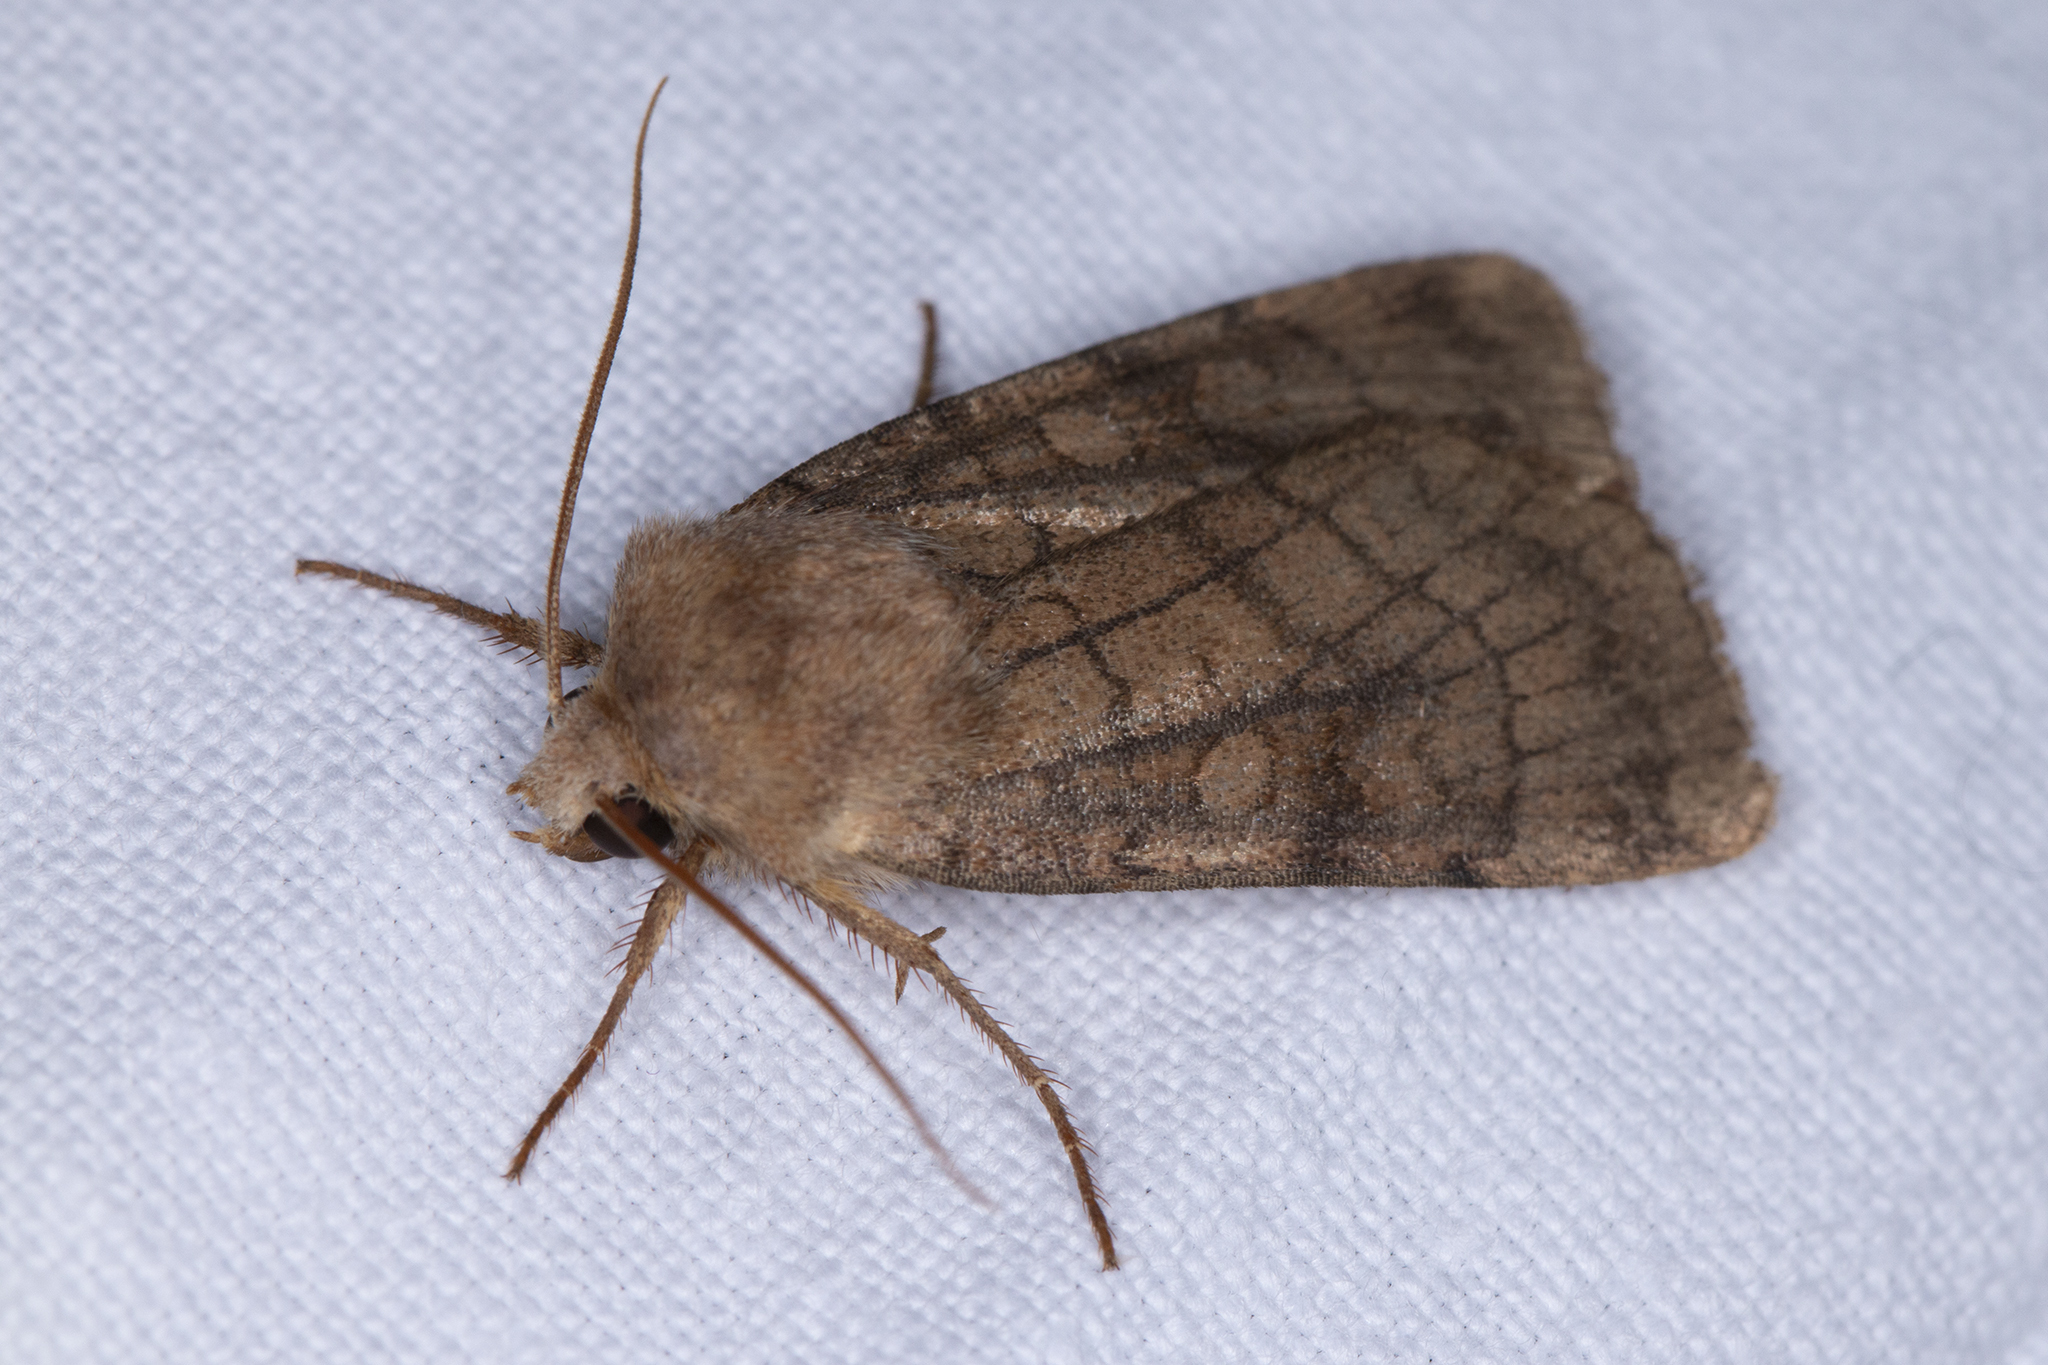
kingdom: Animalia
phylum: Arthropoda
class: Insecta
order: Lepidoptera
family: Noctuidae
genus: Xestia
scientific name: Xestia sexstrigata
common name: Six-striped rustic
